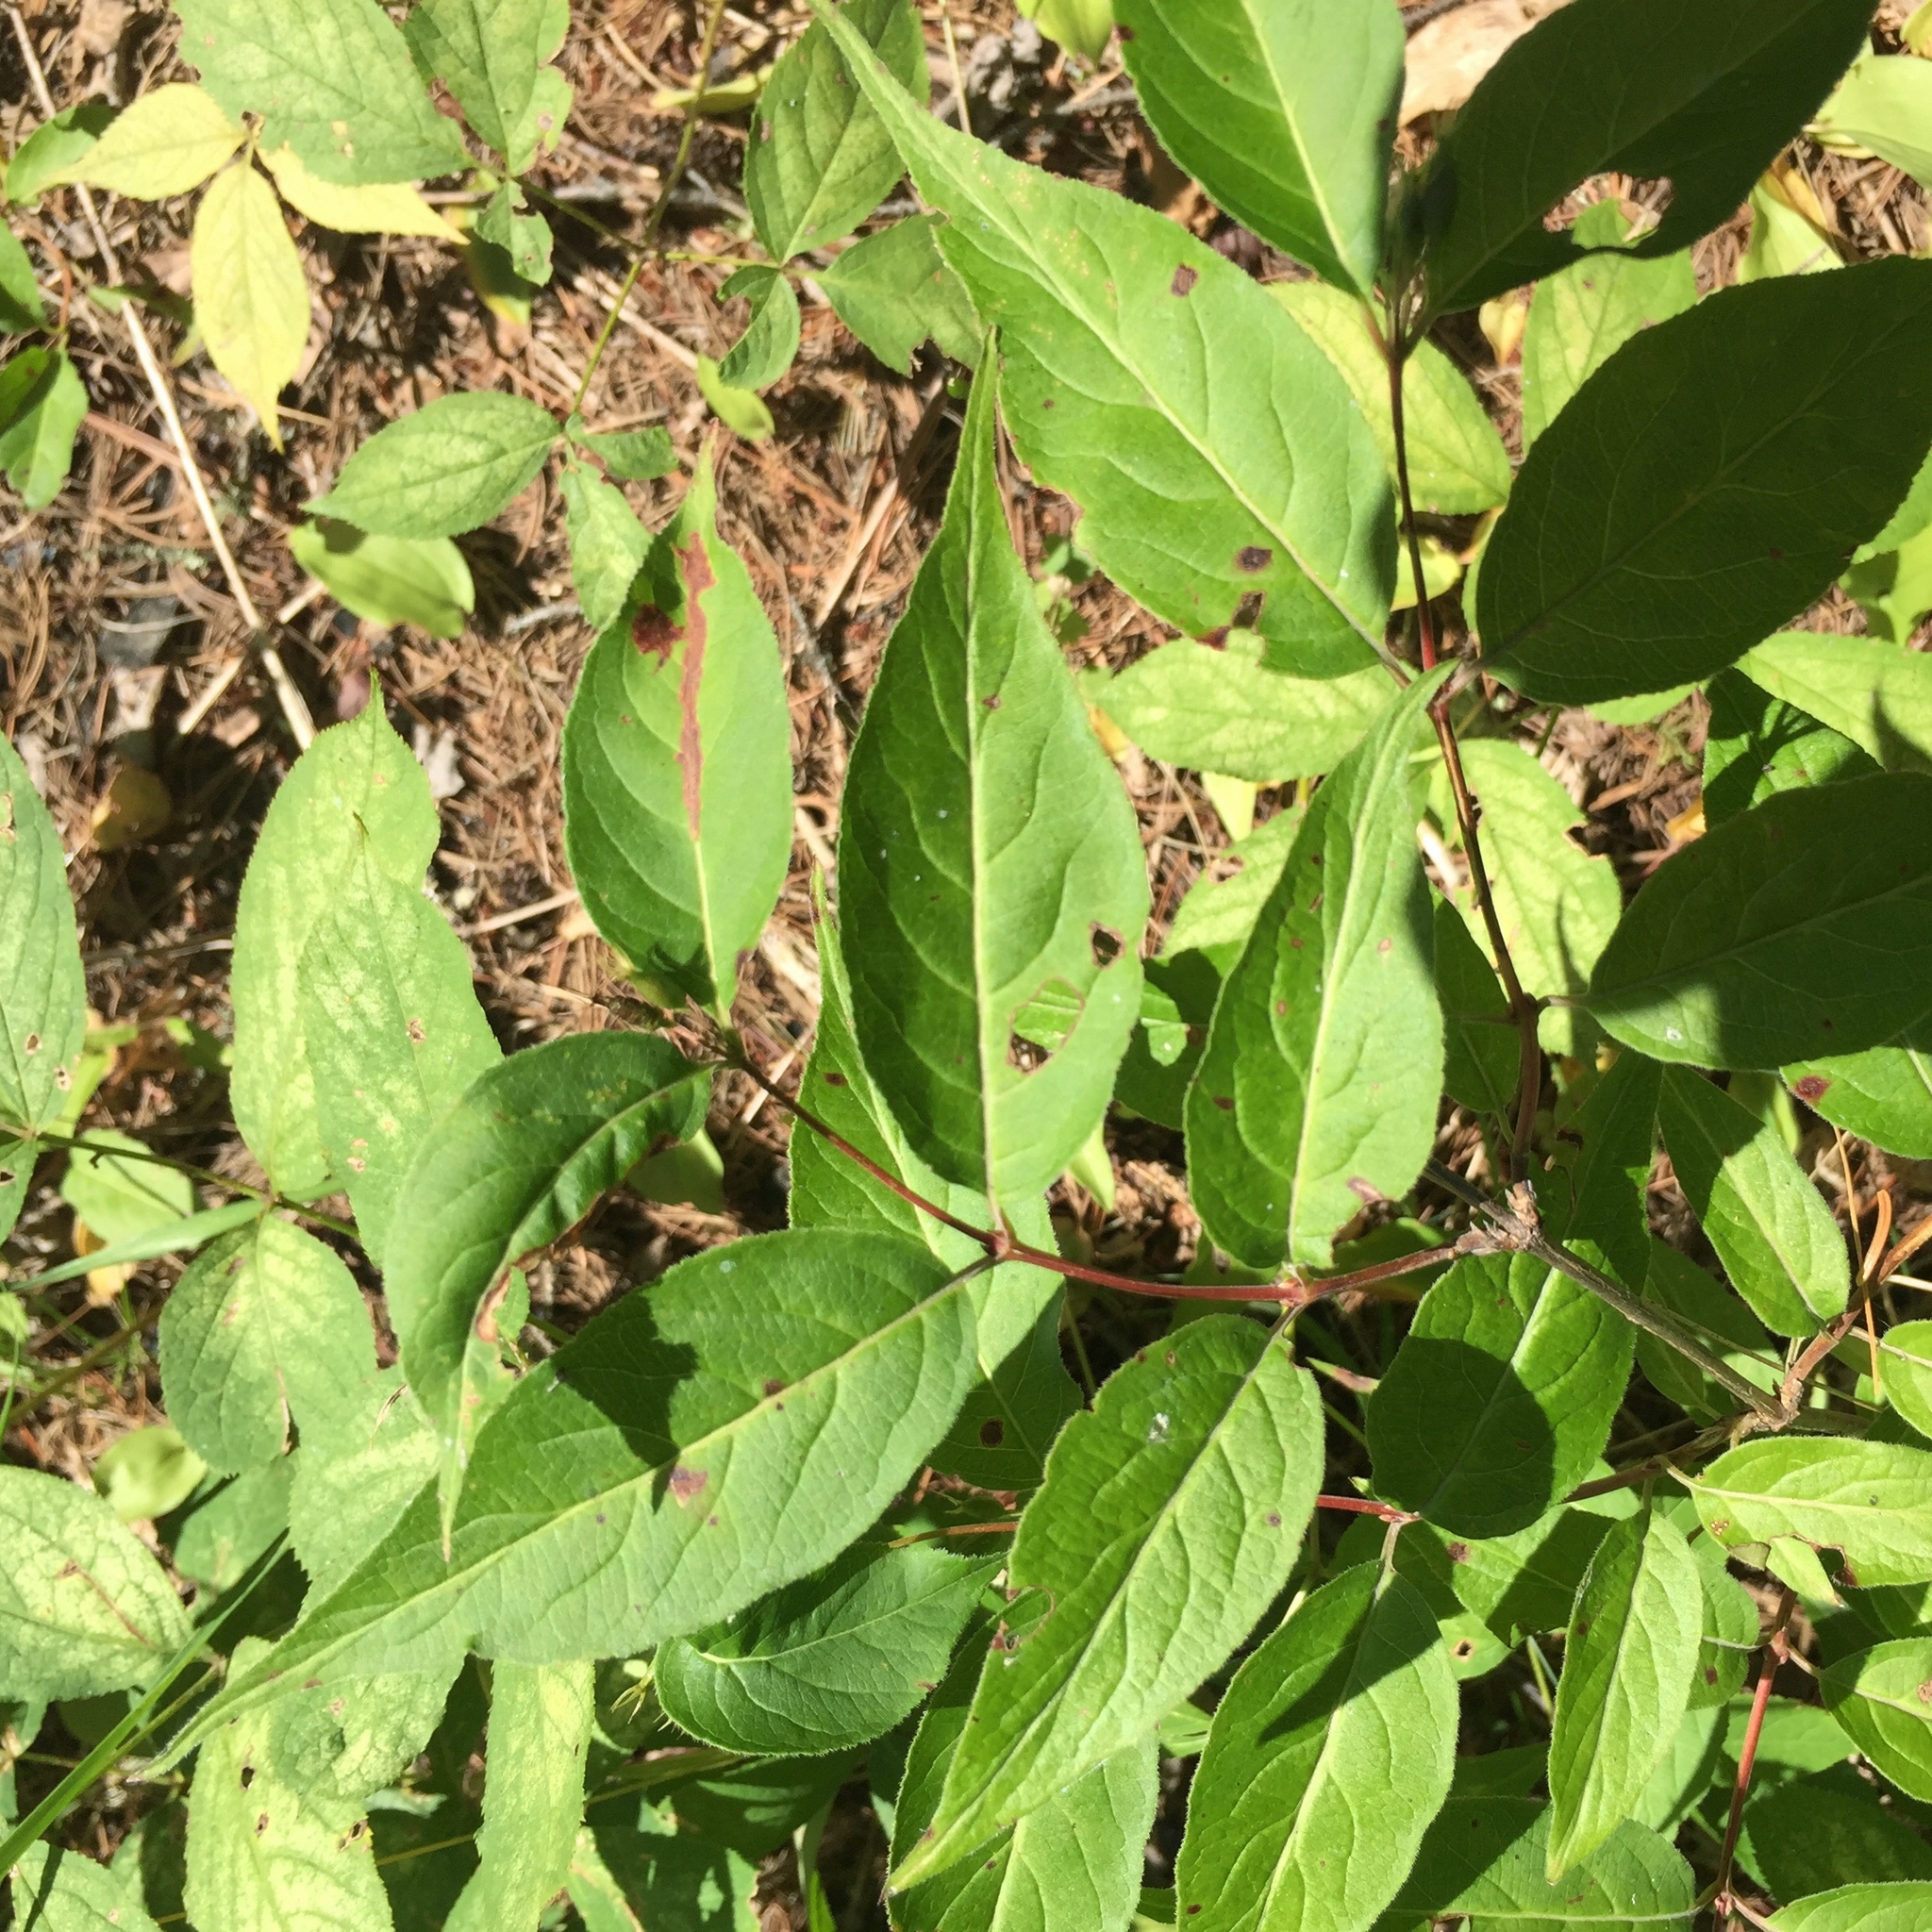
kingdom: Plantae
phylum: Tracheophyta
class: Magnoliopsida
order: Dipsacales
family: Caprifoliaceae
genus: Diervilla
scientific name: Diervilla lonicera
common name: Bush-honeysuckle
